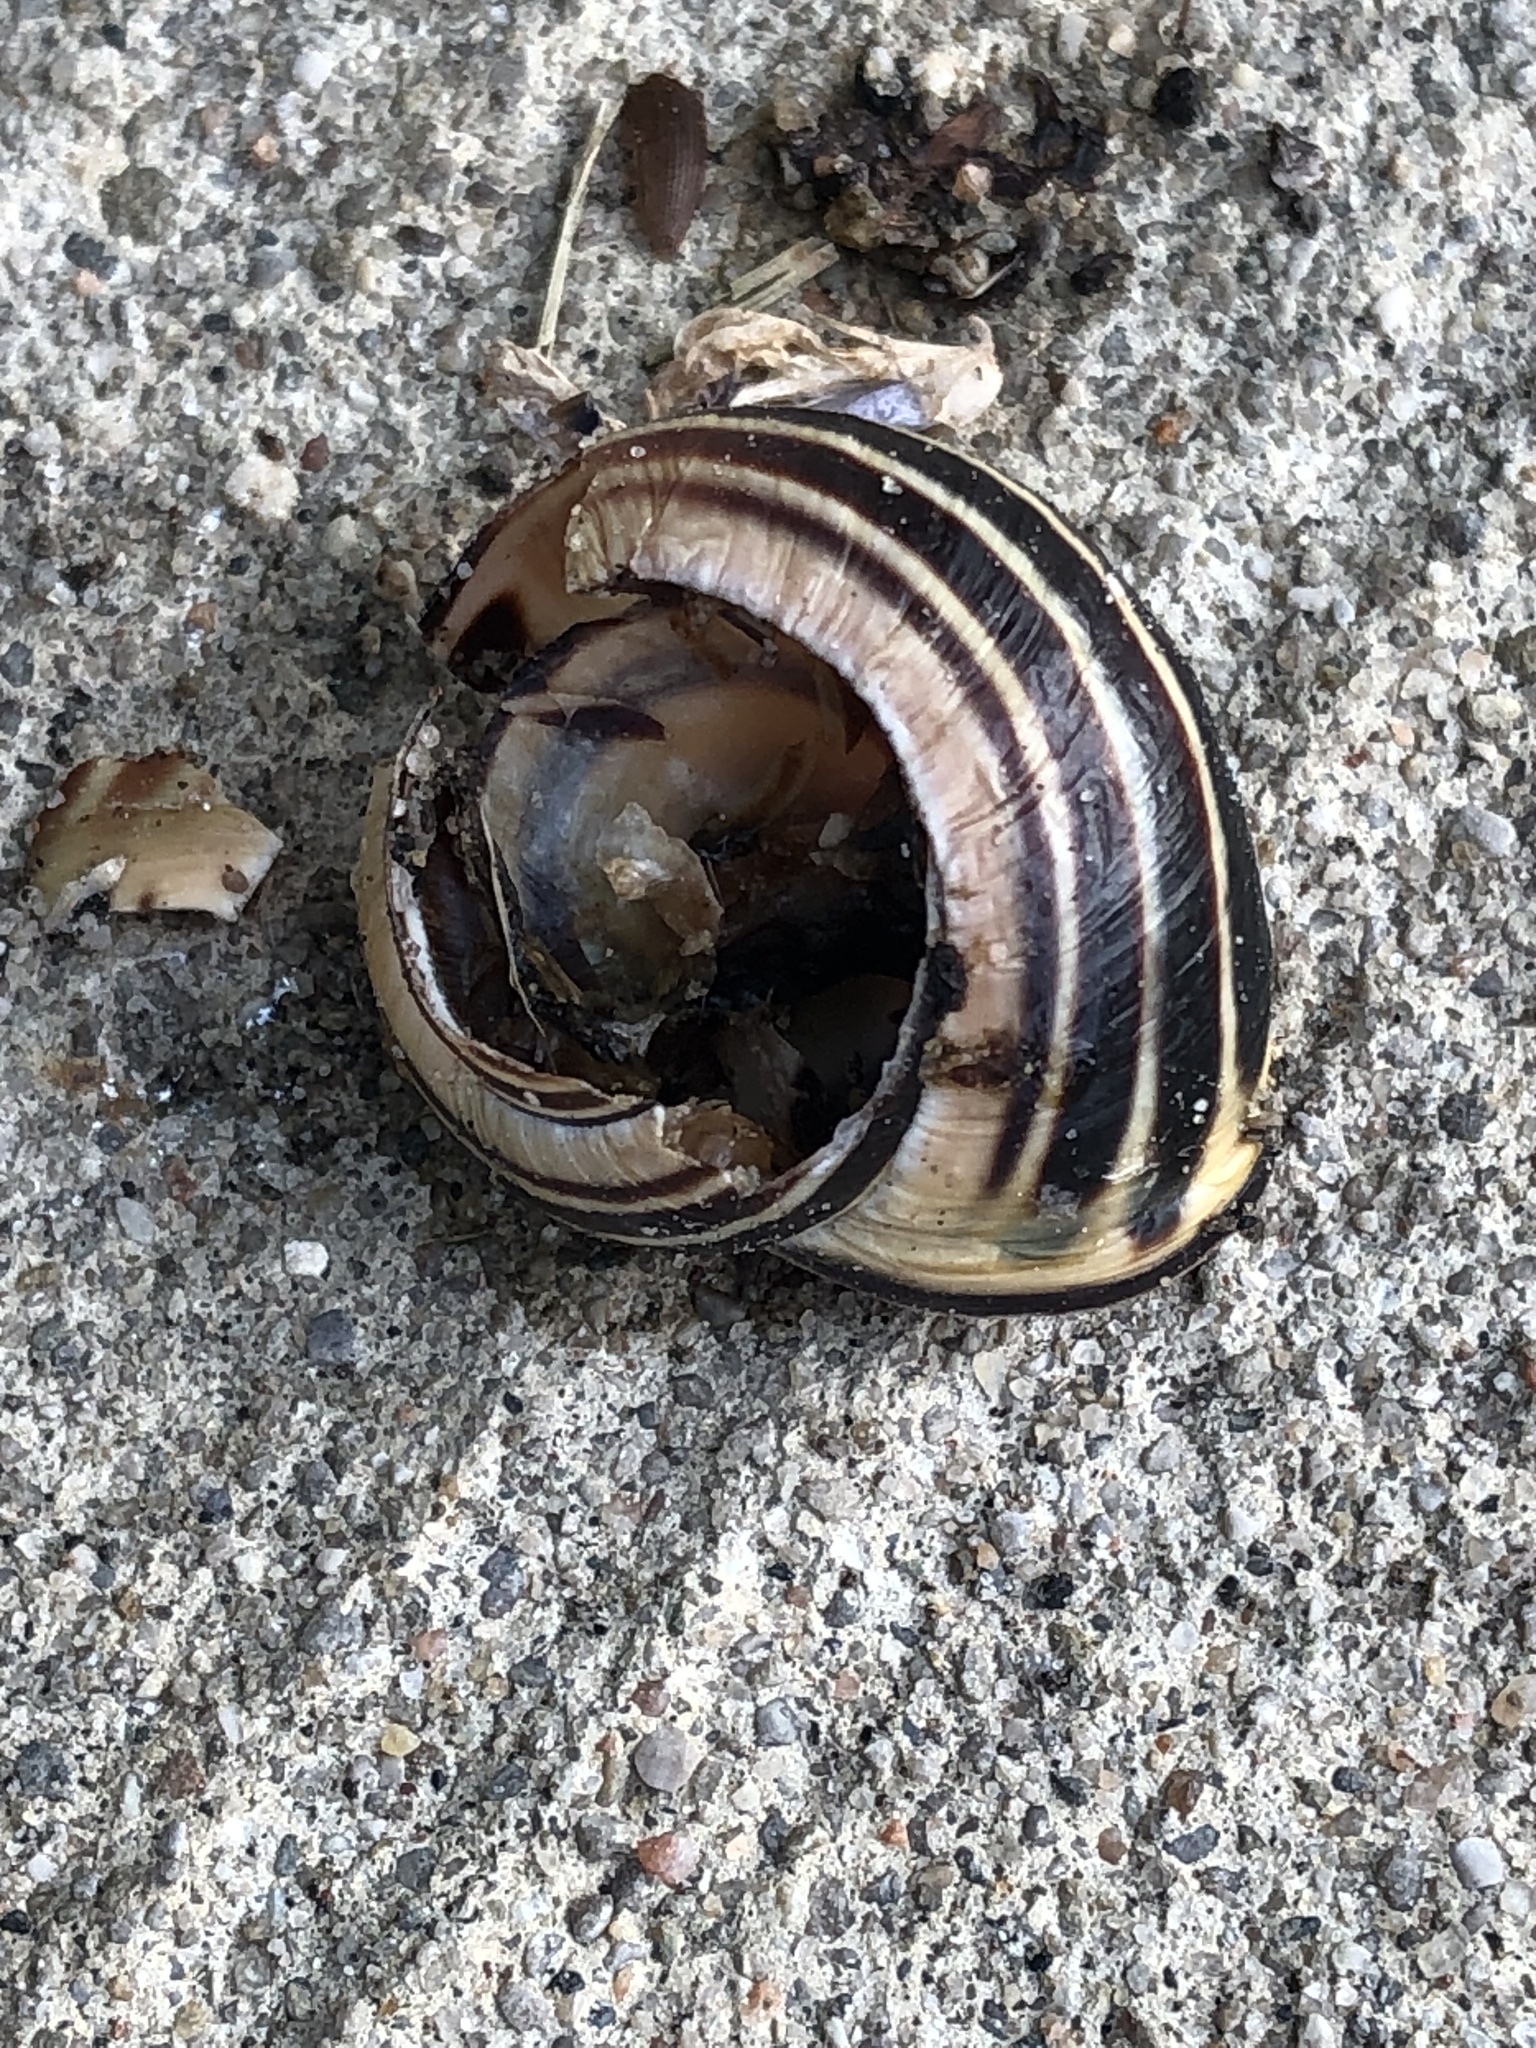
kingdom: Animalia
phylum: Mollusca
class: Gastropoda
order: Stylommatophora
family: Helicidae
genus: Cepaea
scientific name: Cepaea nemoralis
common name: Grovesnail
